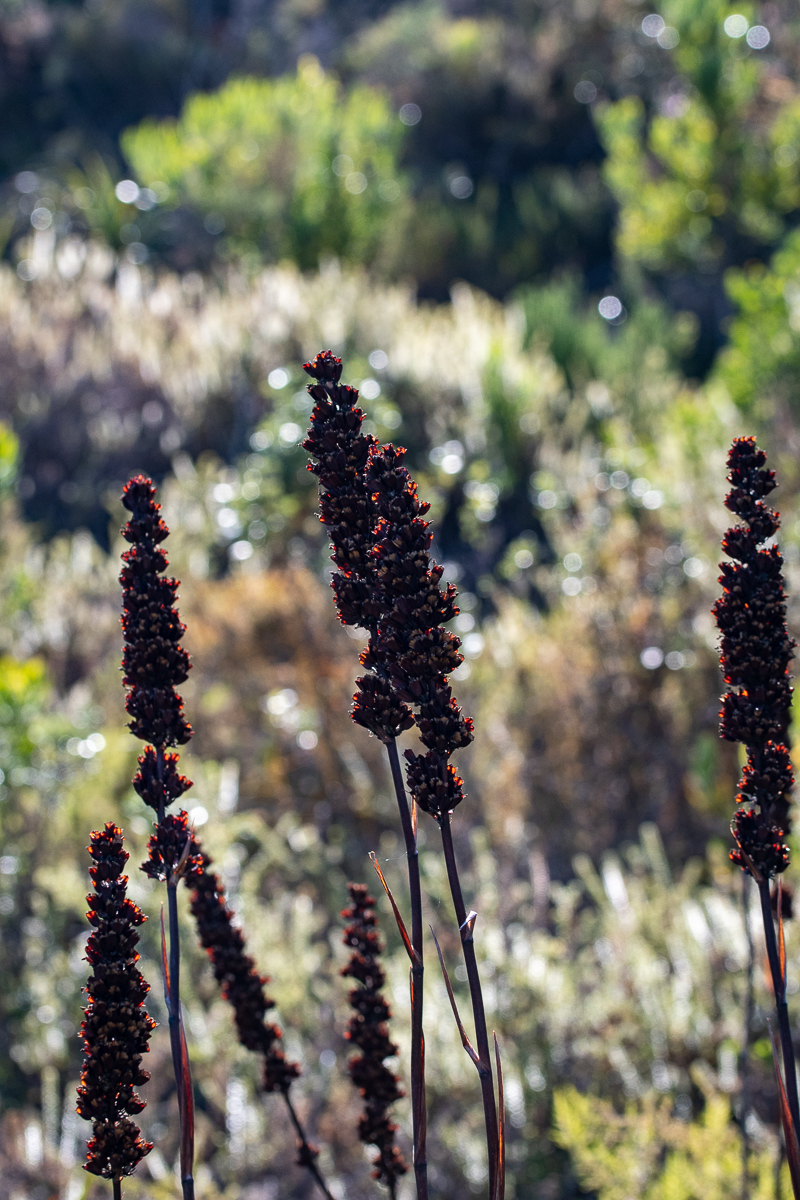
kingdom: Plantae
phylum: Tracheophyta
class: Liliopsida
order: Asparagales
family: Iridaceae
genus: Aristea
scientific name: Aristea capitata
